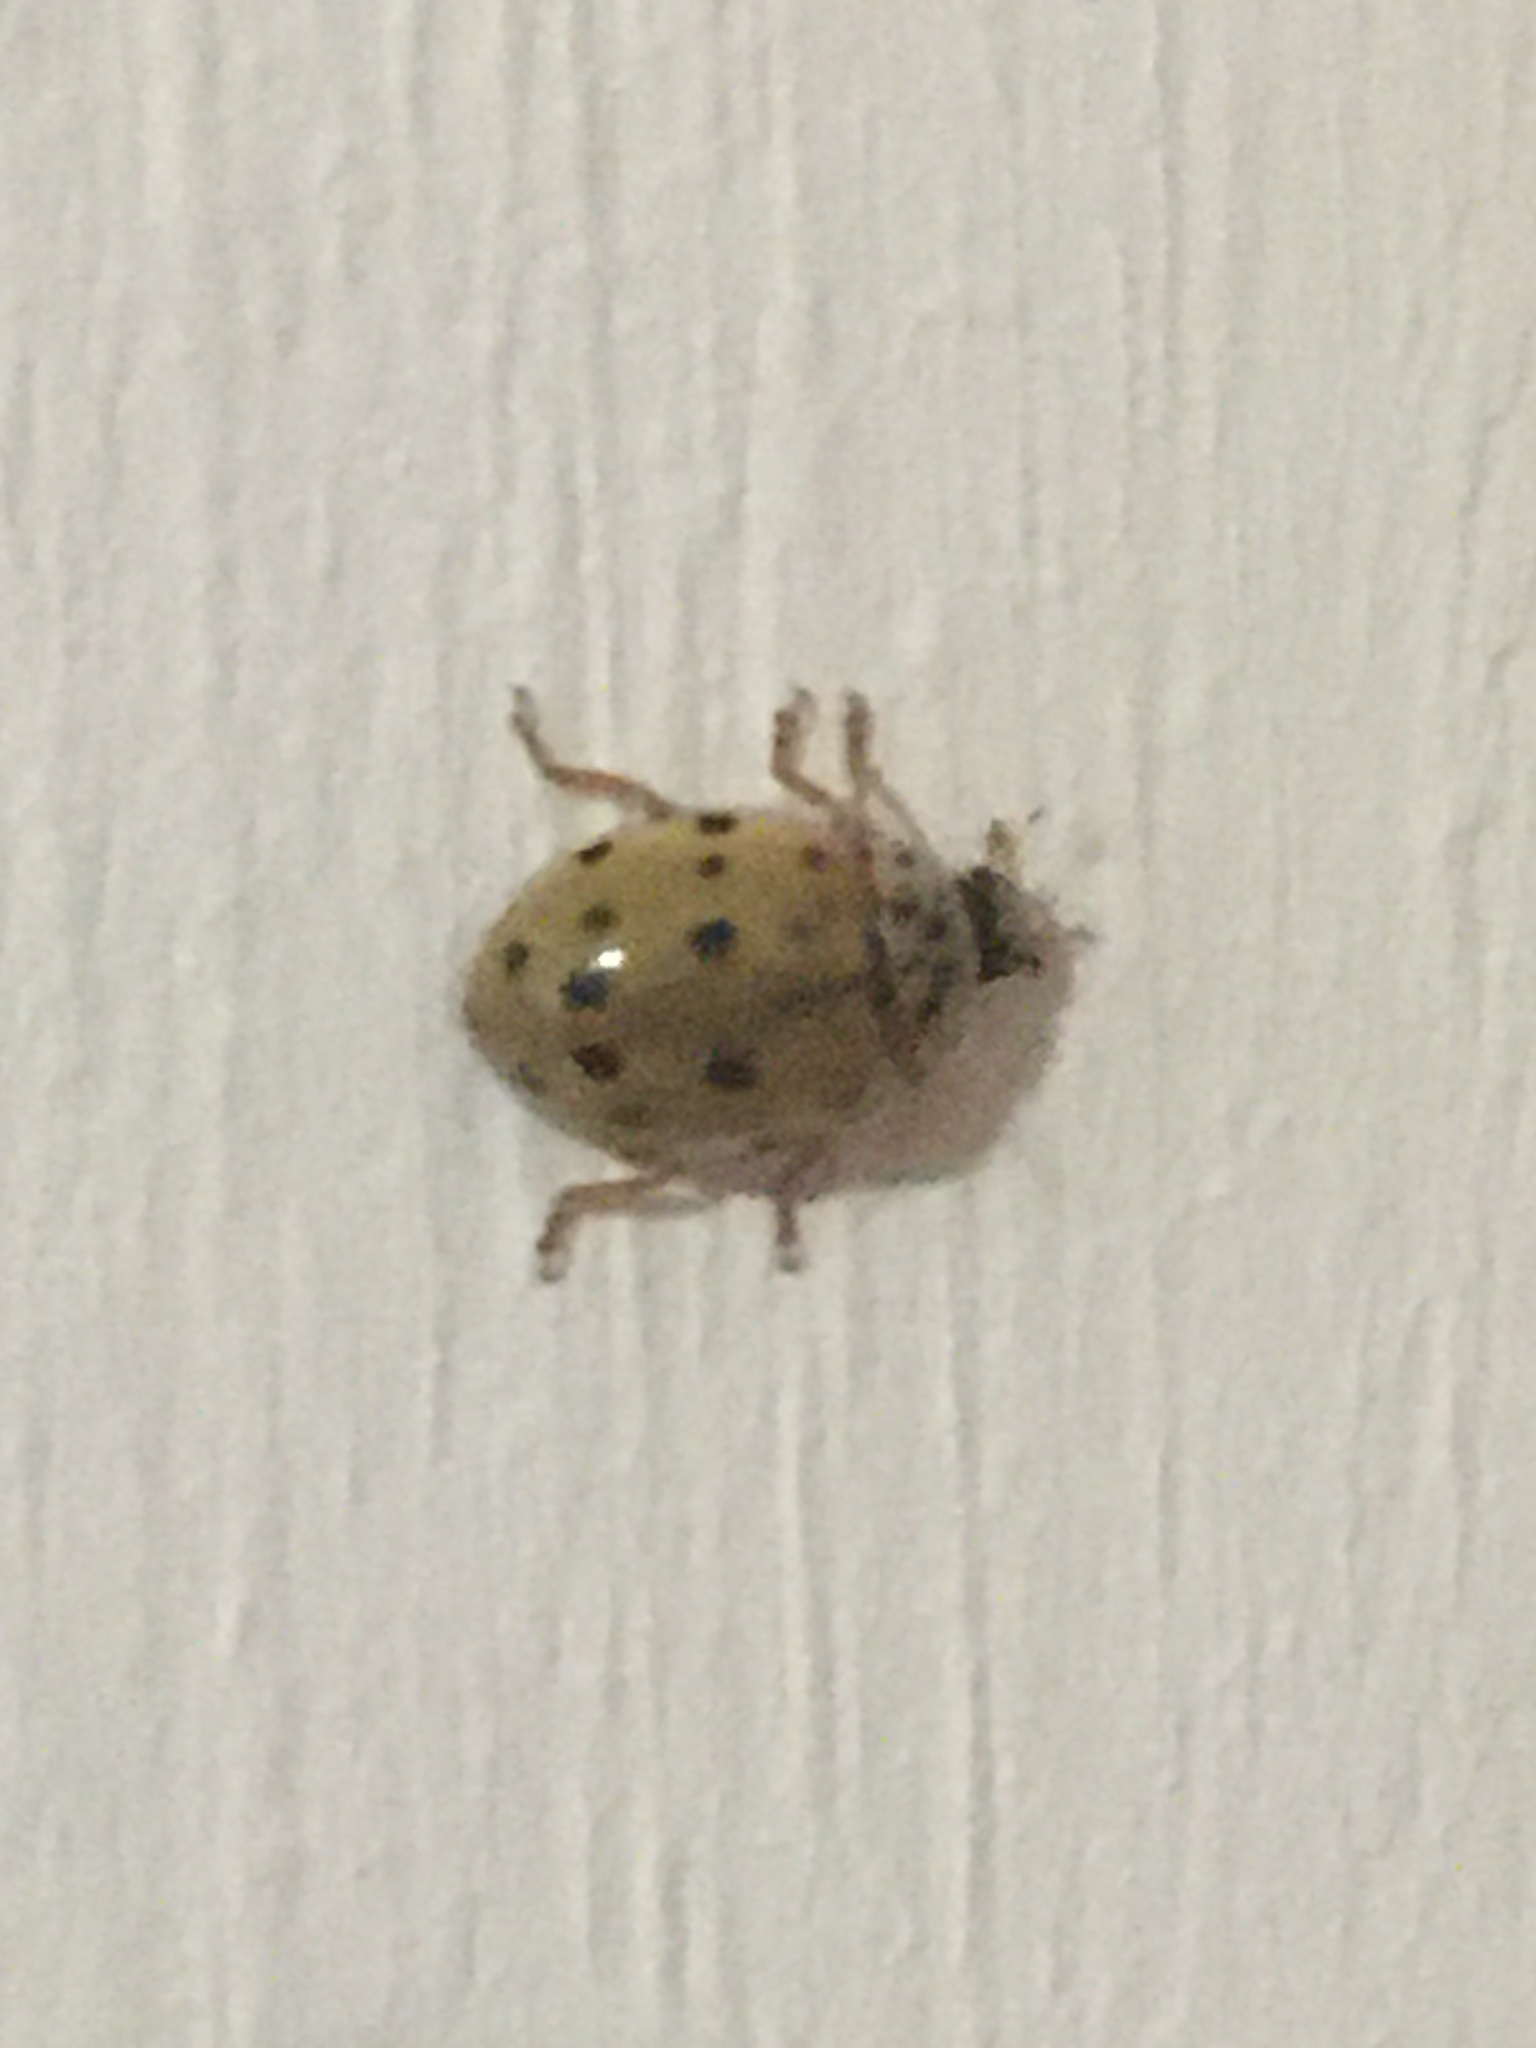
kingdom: Animalia
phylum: Arthropoda
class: Insecta
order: Coleoptera
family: Coccinellidae
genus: Harmonia
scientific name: Harmonia quadripunctata
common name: Cream-streaked ladybird
